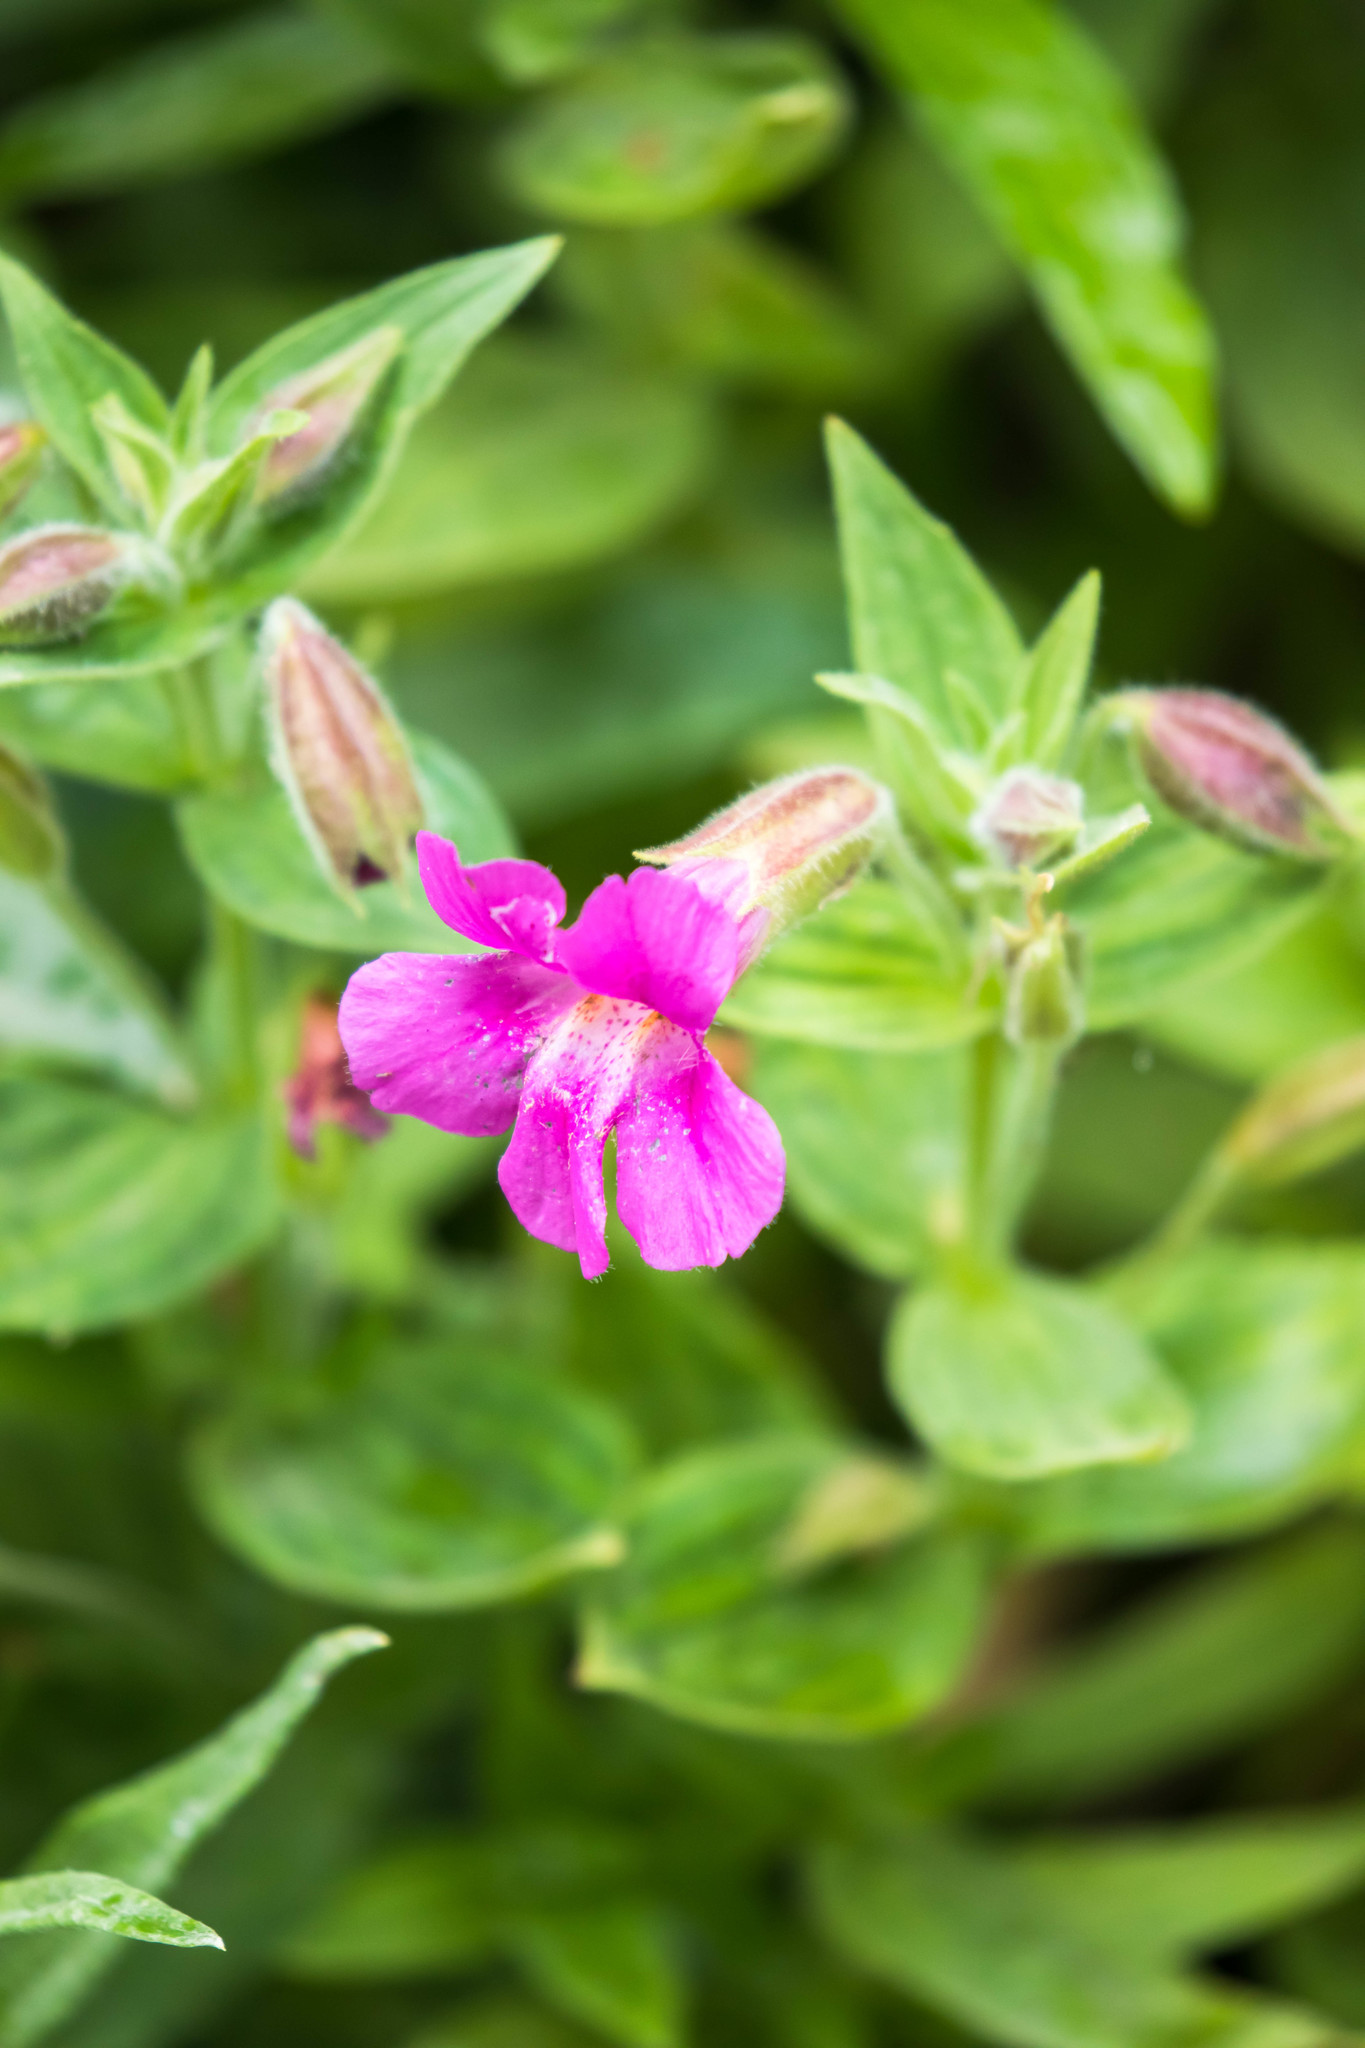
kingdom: Plantae
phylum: Tracheophyta
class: Magnoliopsida
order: Lamiales
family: Phrymaceae
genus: Erythranthe
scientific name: Erythranthe lewisii
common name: Lewis's monkey-flower
